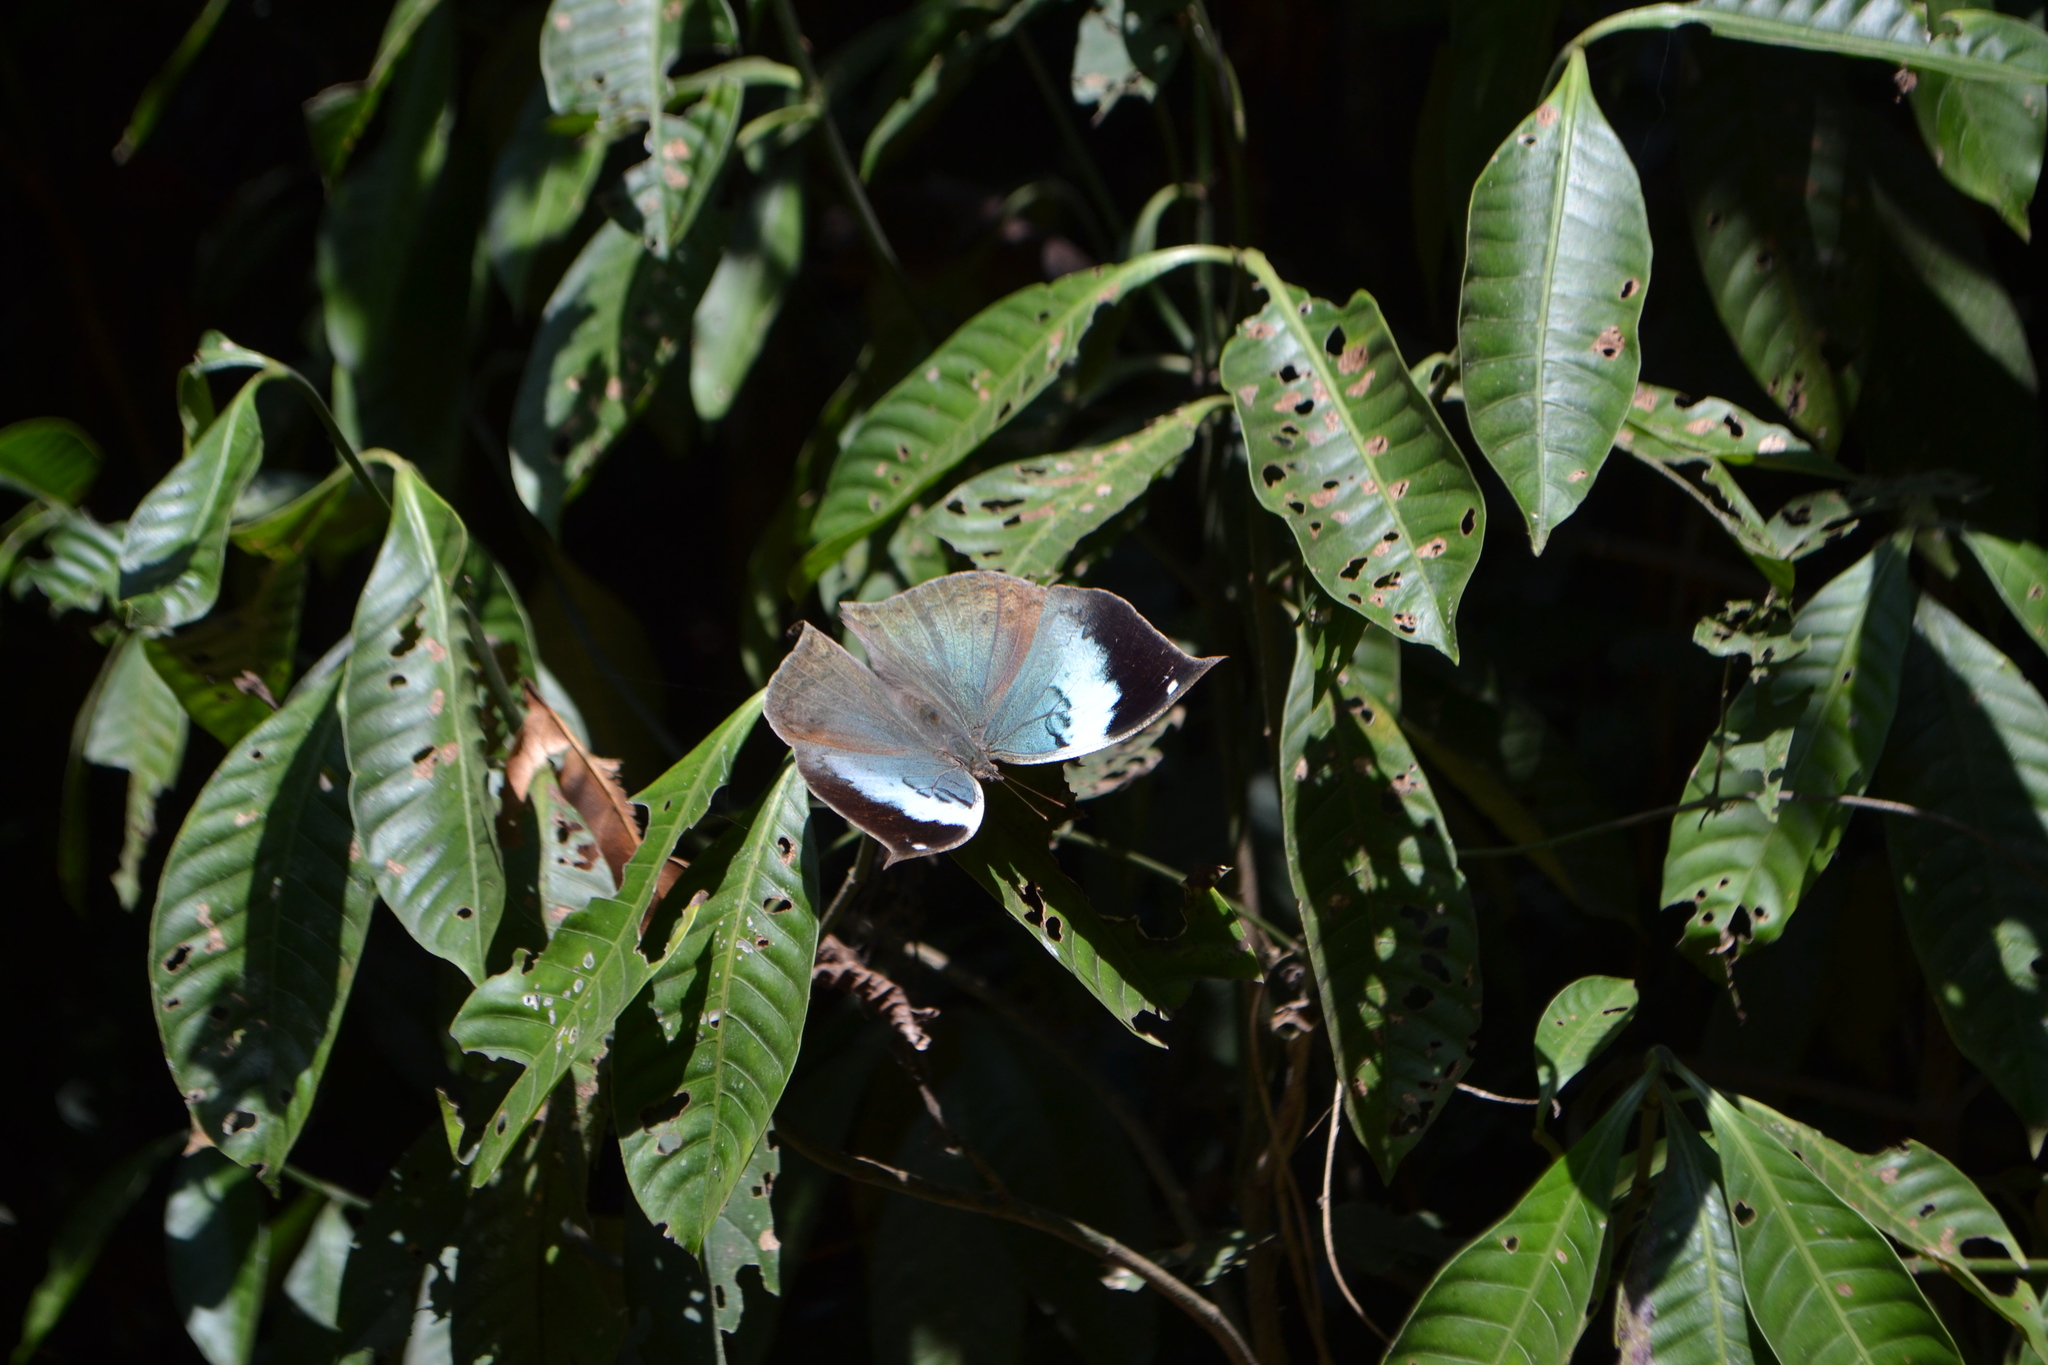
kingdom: Animalia
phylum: Arthropoda
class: Insecta
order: Lepidoptera
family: Nymphalidae
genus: Kallima
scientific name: Kallima horsfieldii
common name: Sahyadri blue oakleaf
